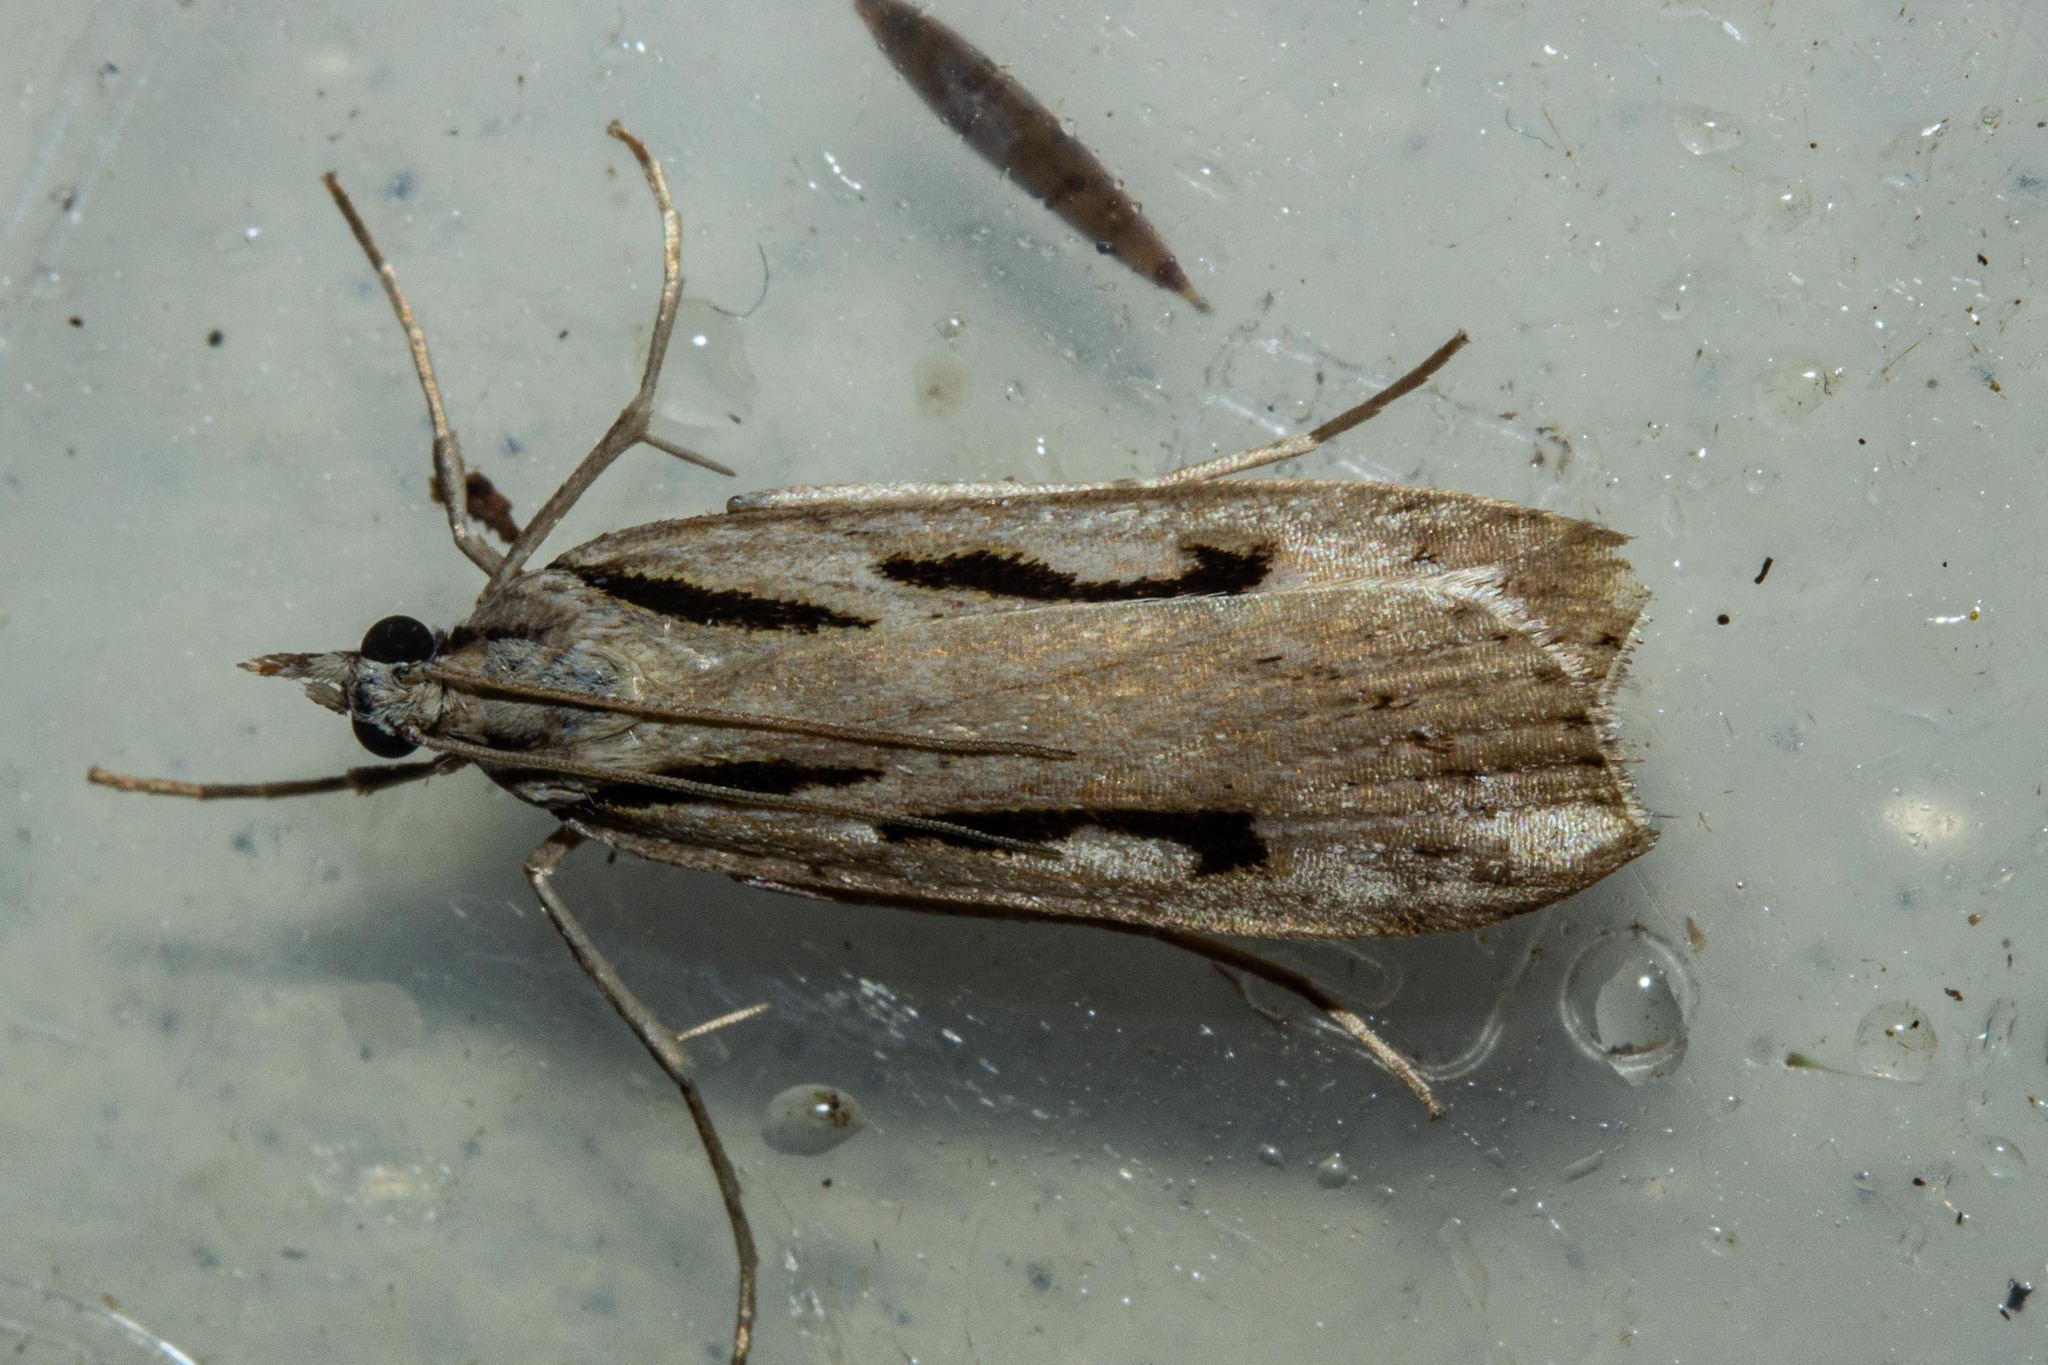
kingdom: Animalia
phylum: Arthropoda
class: Insecta
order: Lepidoptera
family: Crambidae
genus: Scoparia
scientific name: Scoparia rotuellus
